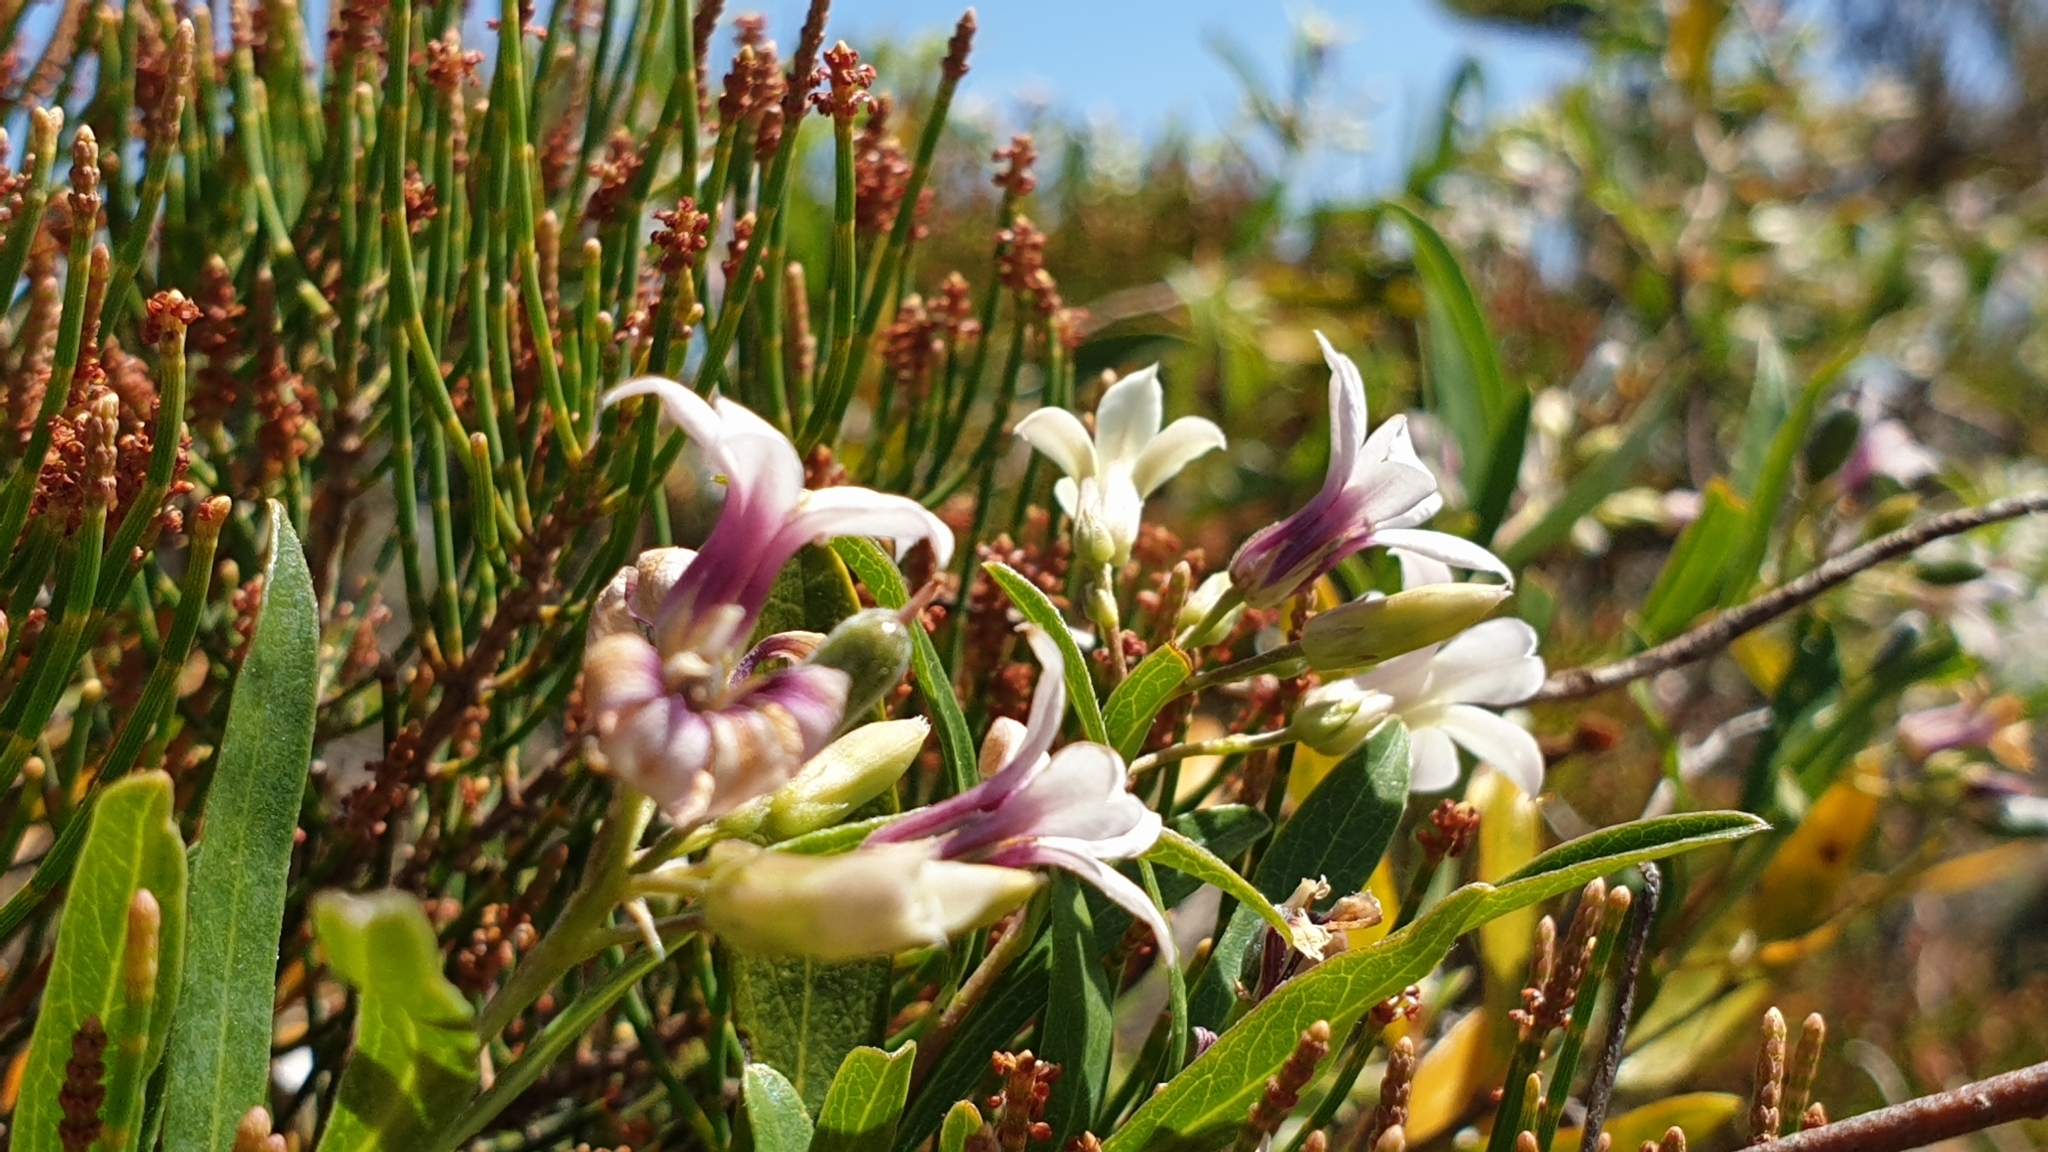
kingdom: Plantae
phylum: Tracheophyta
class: Magnoliopsida
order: Apiales
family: Pittosporaceae
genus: Billardiera
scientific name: Billardiera cymosa
